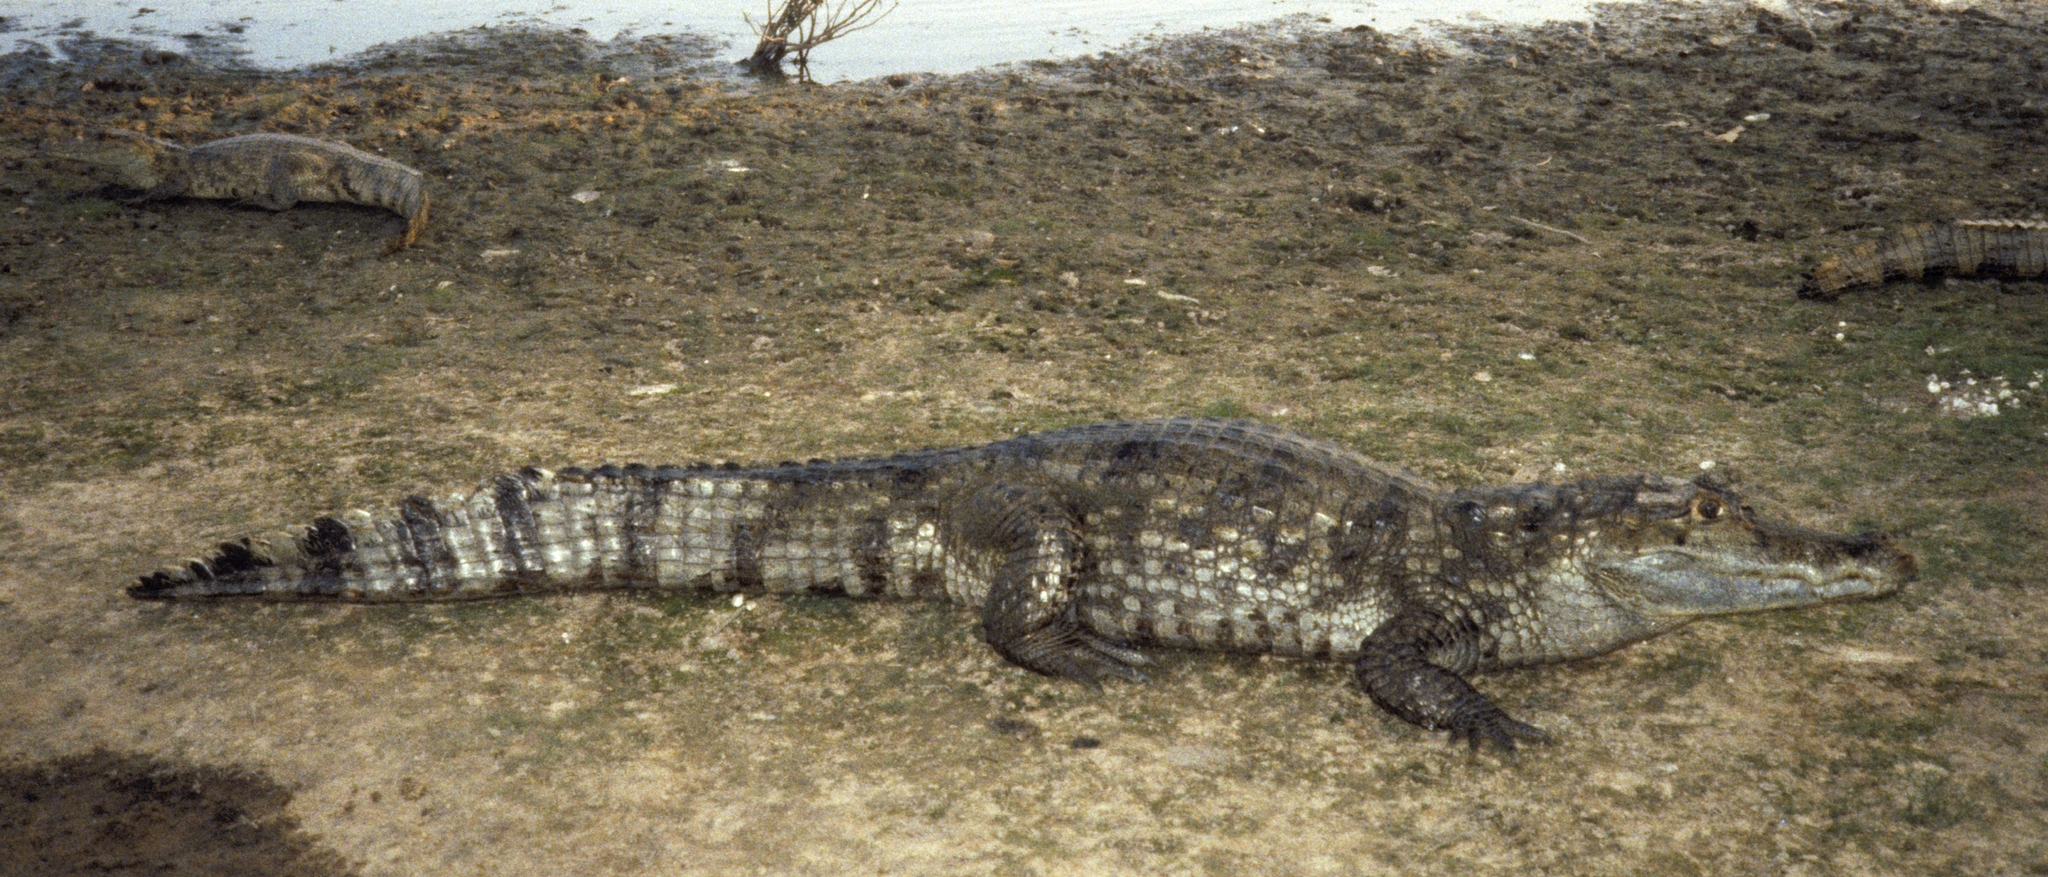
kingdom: Animalia
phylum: Chordata
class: Crocodylia
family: Alligatoridae
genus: Caiman
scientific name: Caiman crocodilus
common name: Common caiman
